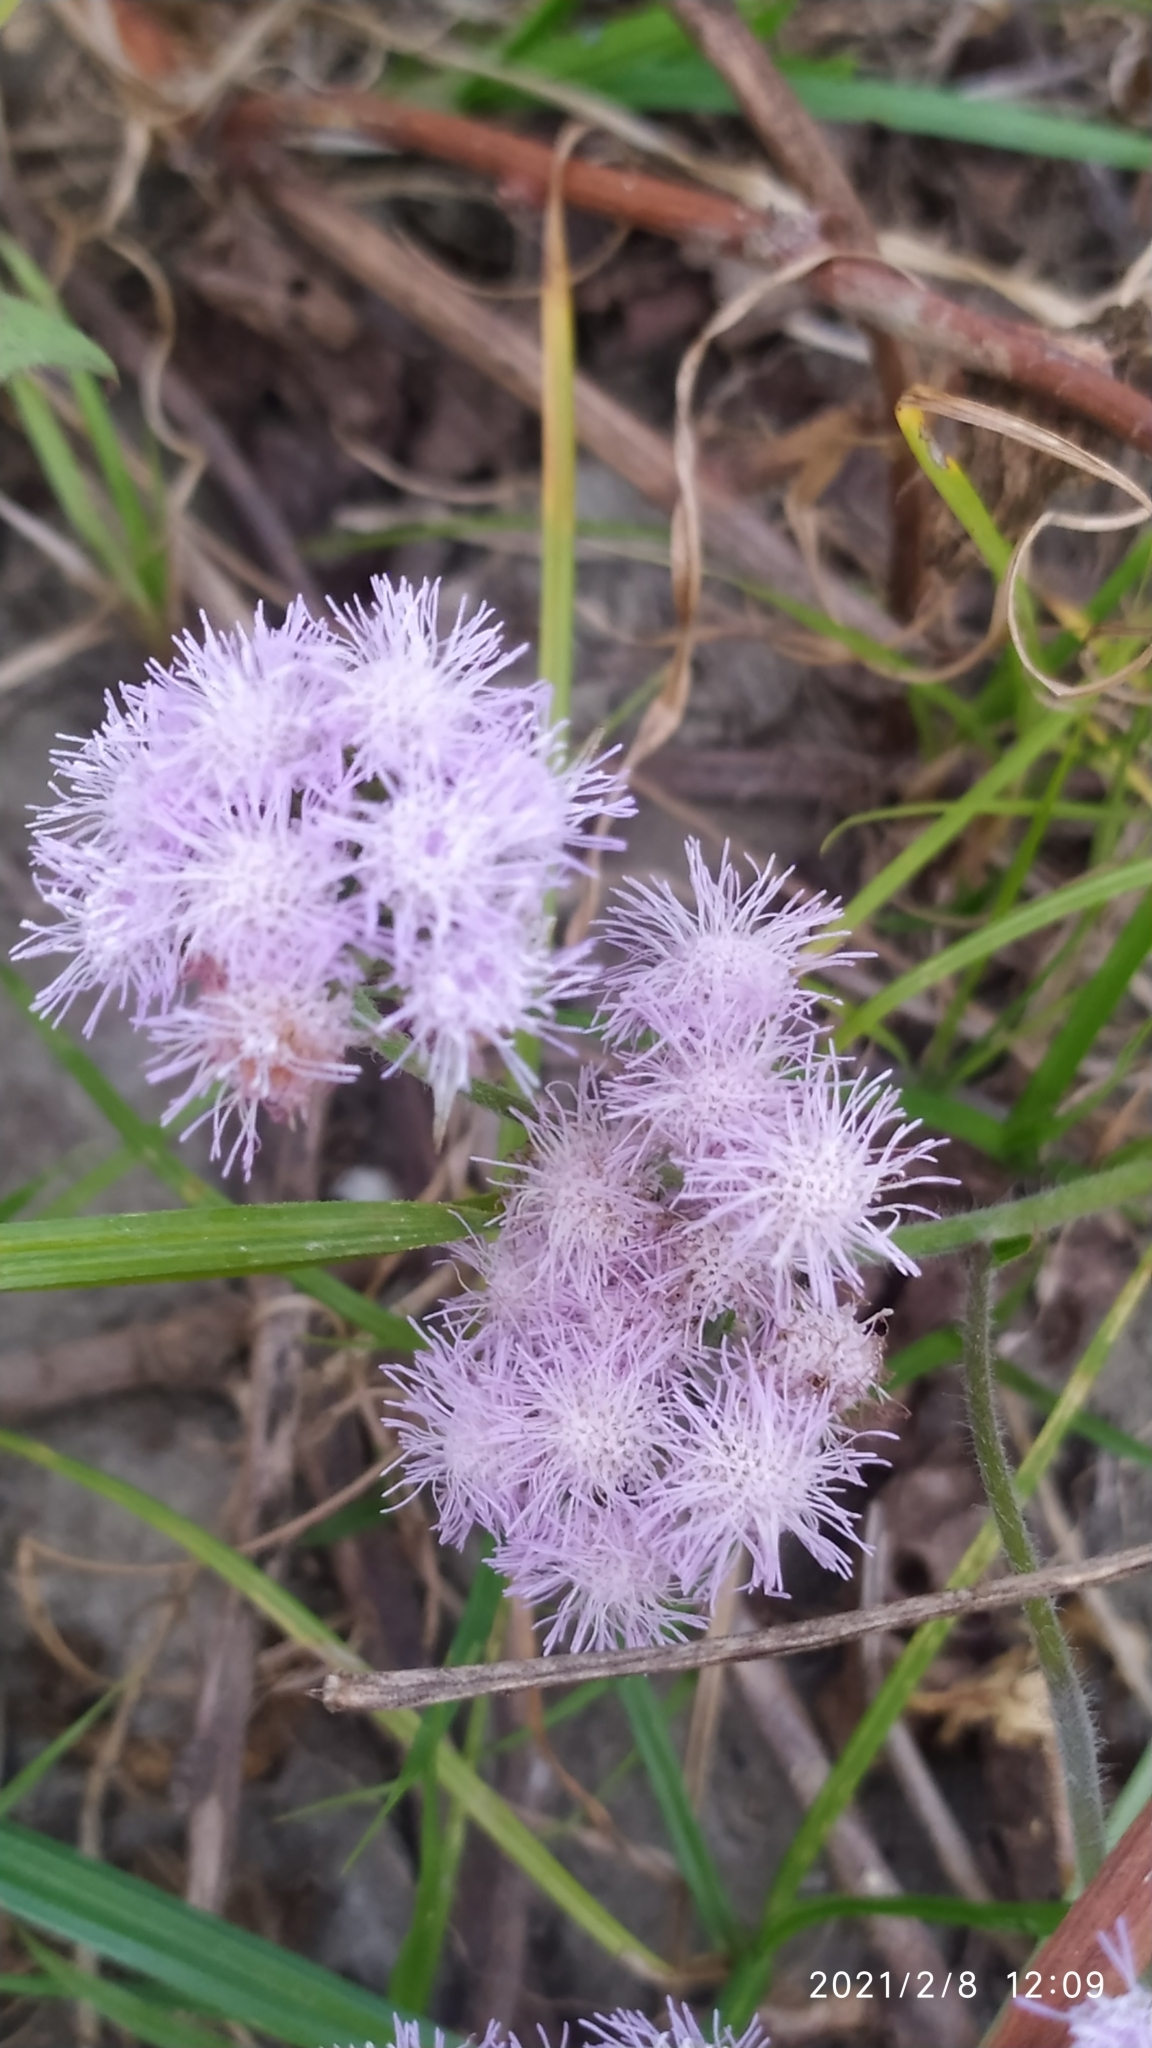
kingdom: Plantae
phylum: Tracheophyta
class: Magnoliopsida
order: Asterales
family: Asteraceae
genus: Ageratum
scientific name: Ageratum houstonianum
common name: Bluemink
